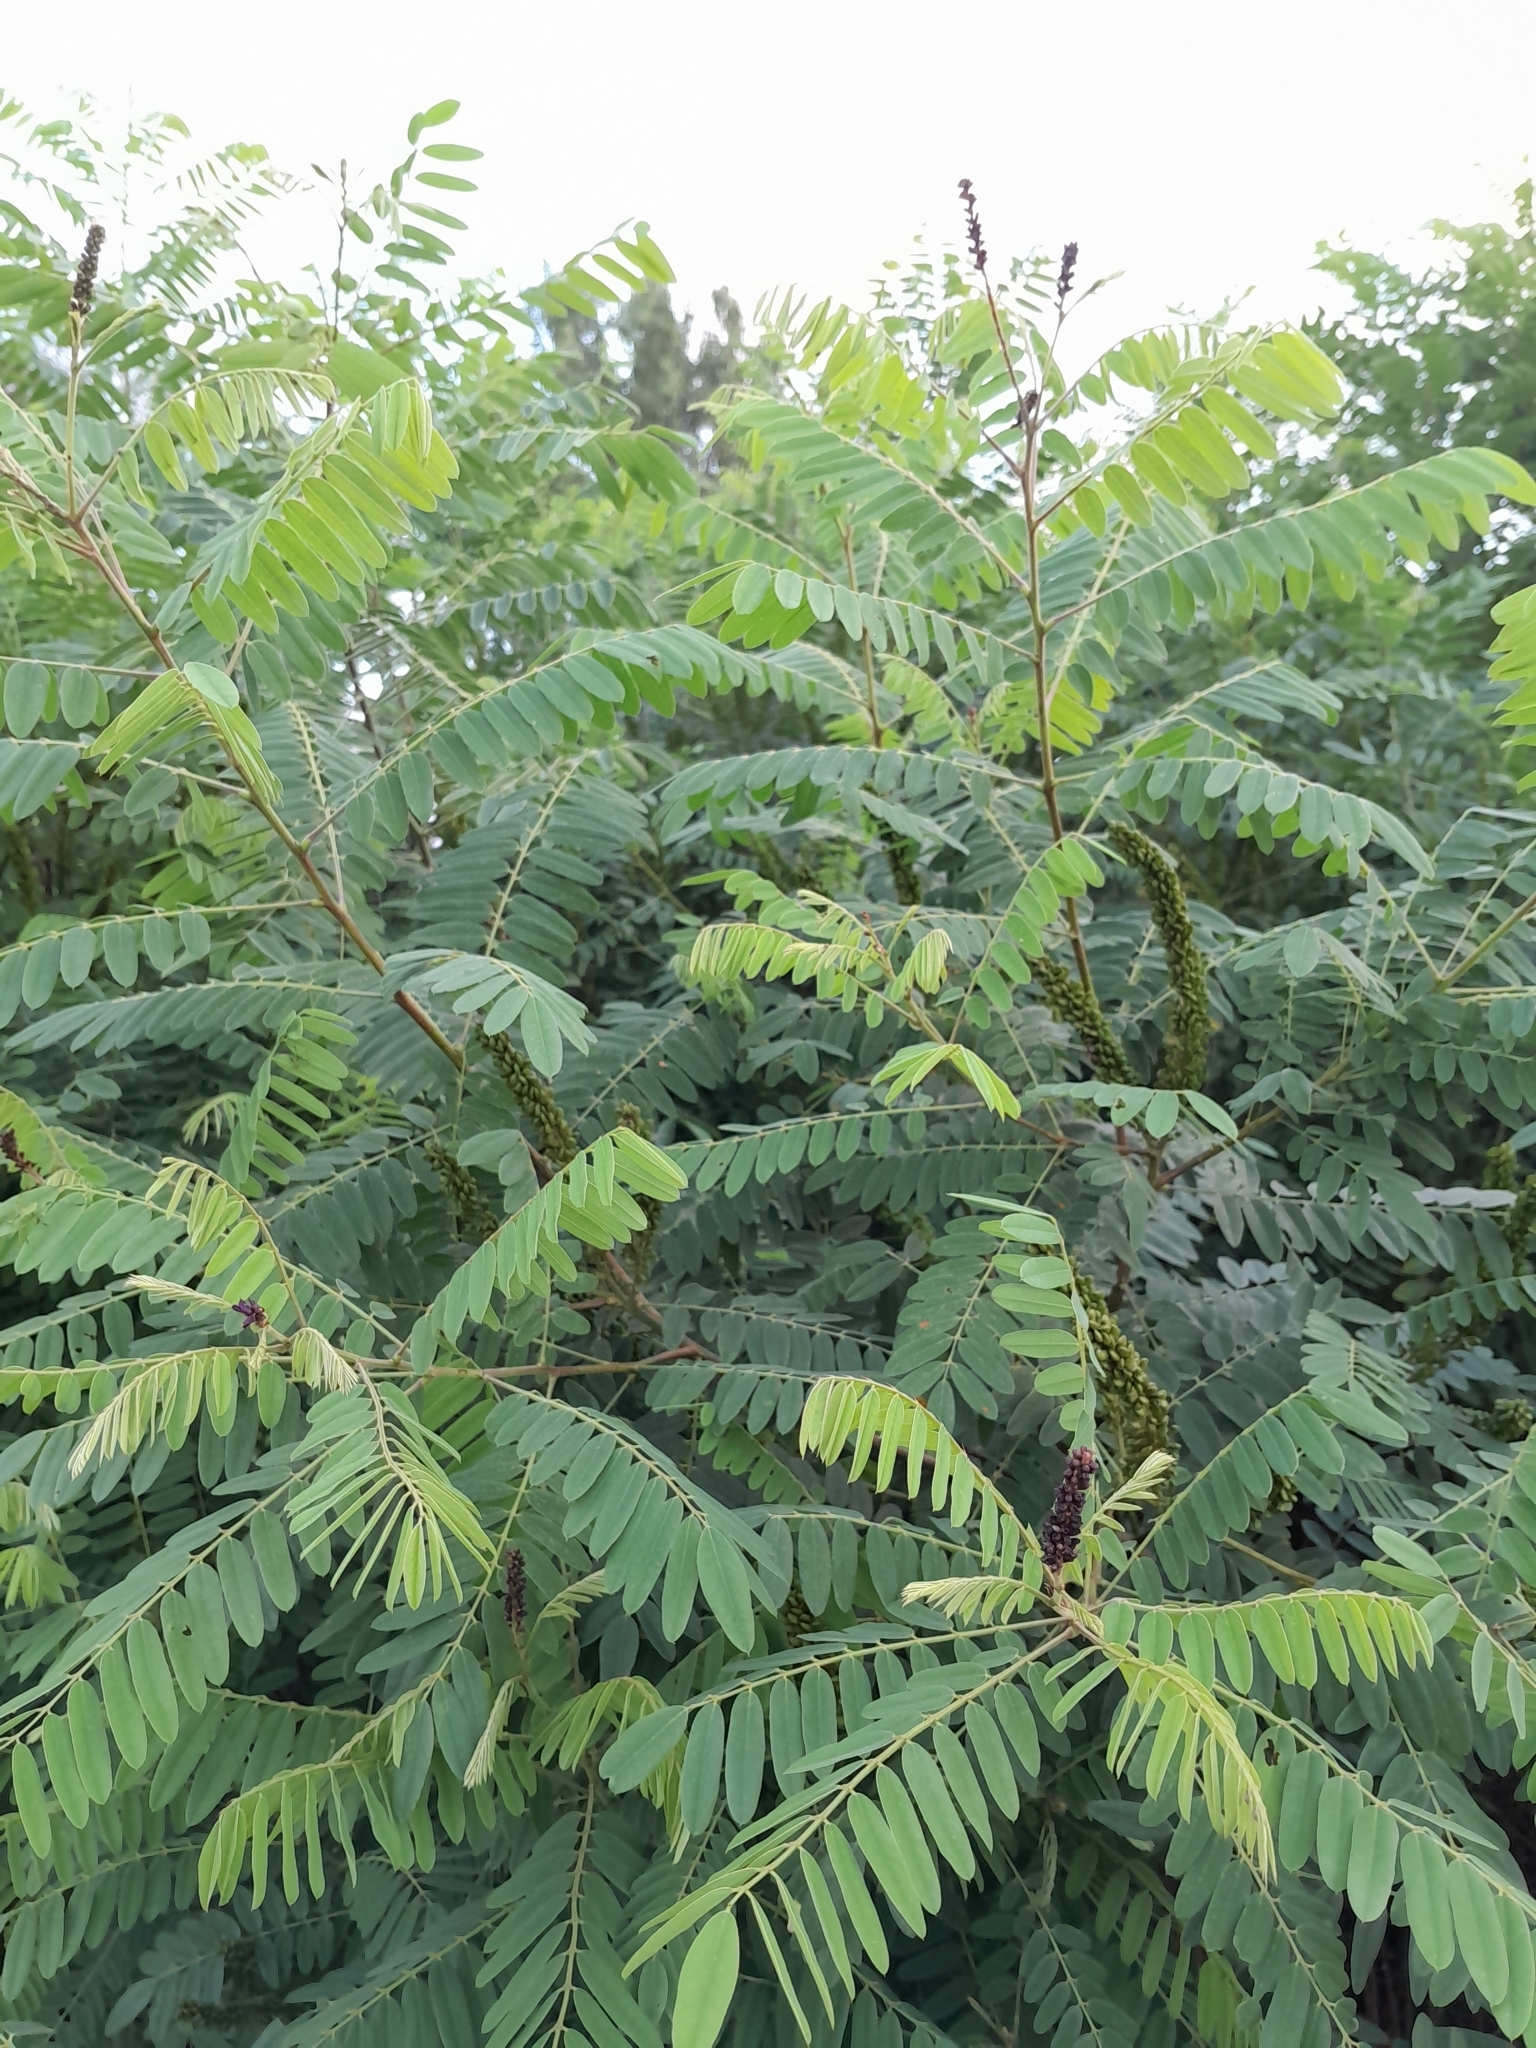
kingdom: Plantae
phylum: Tracheophyta
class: Magnoliopsida
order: Fabales
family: Fabaceae
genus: Amorpha
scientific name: Amorpha fruticosa
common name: False indigo
